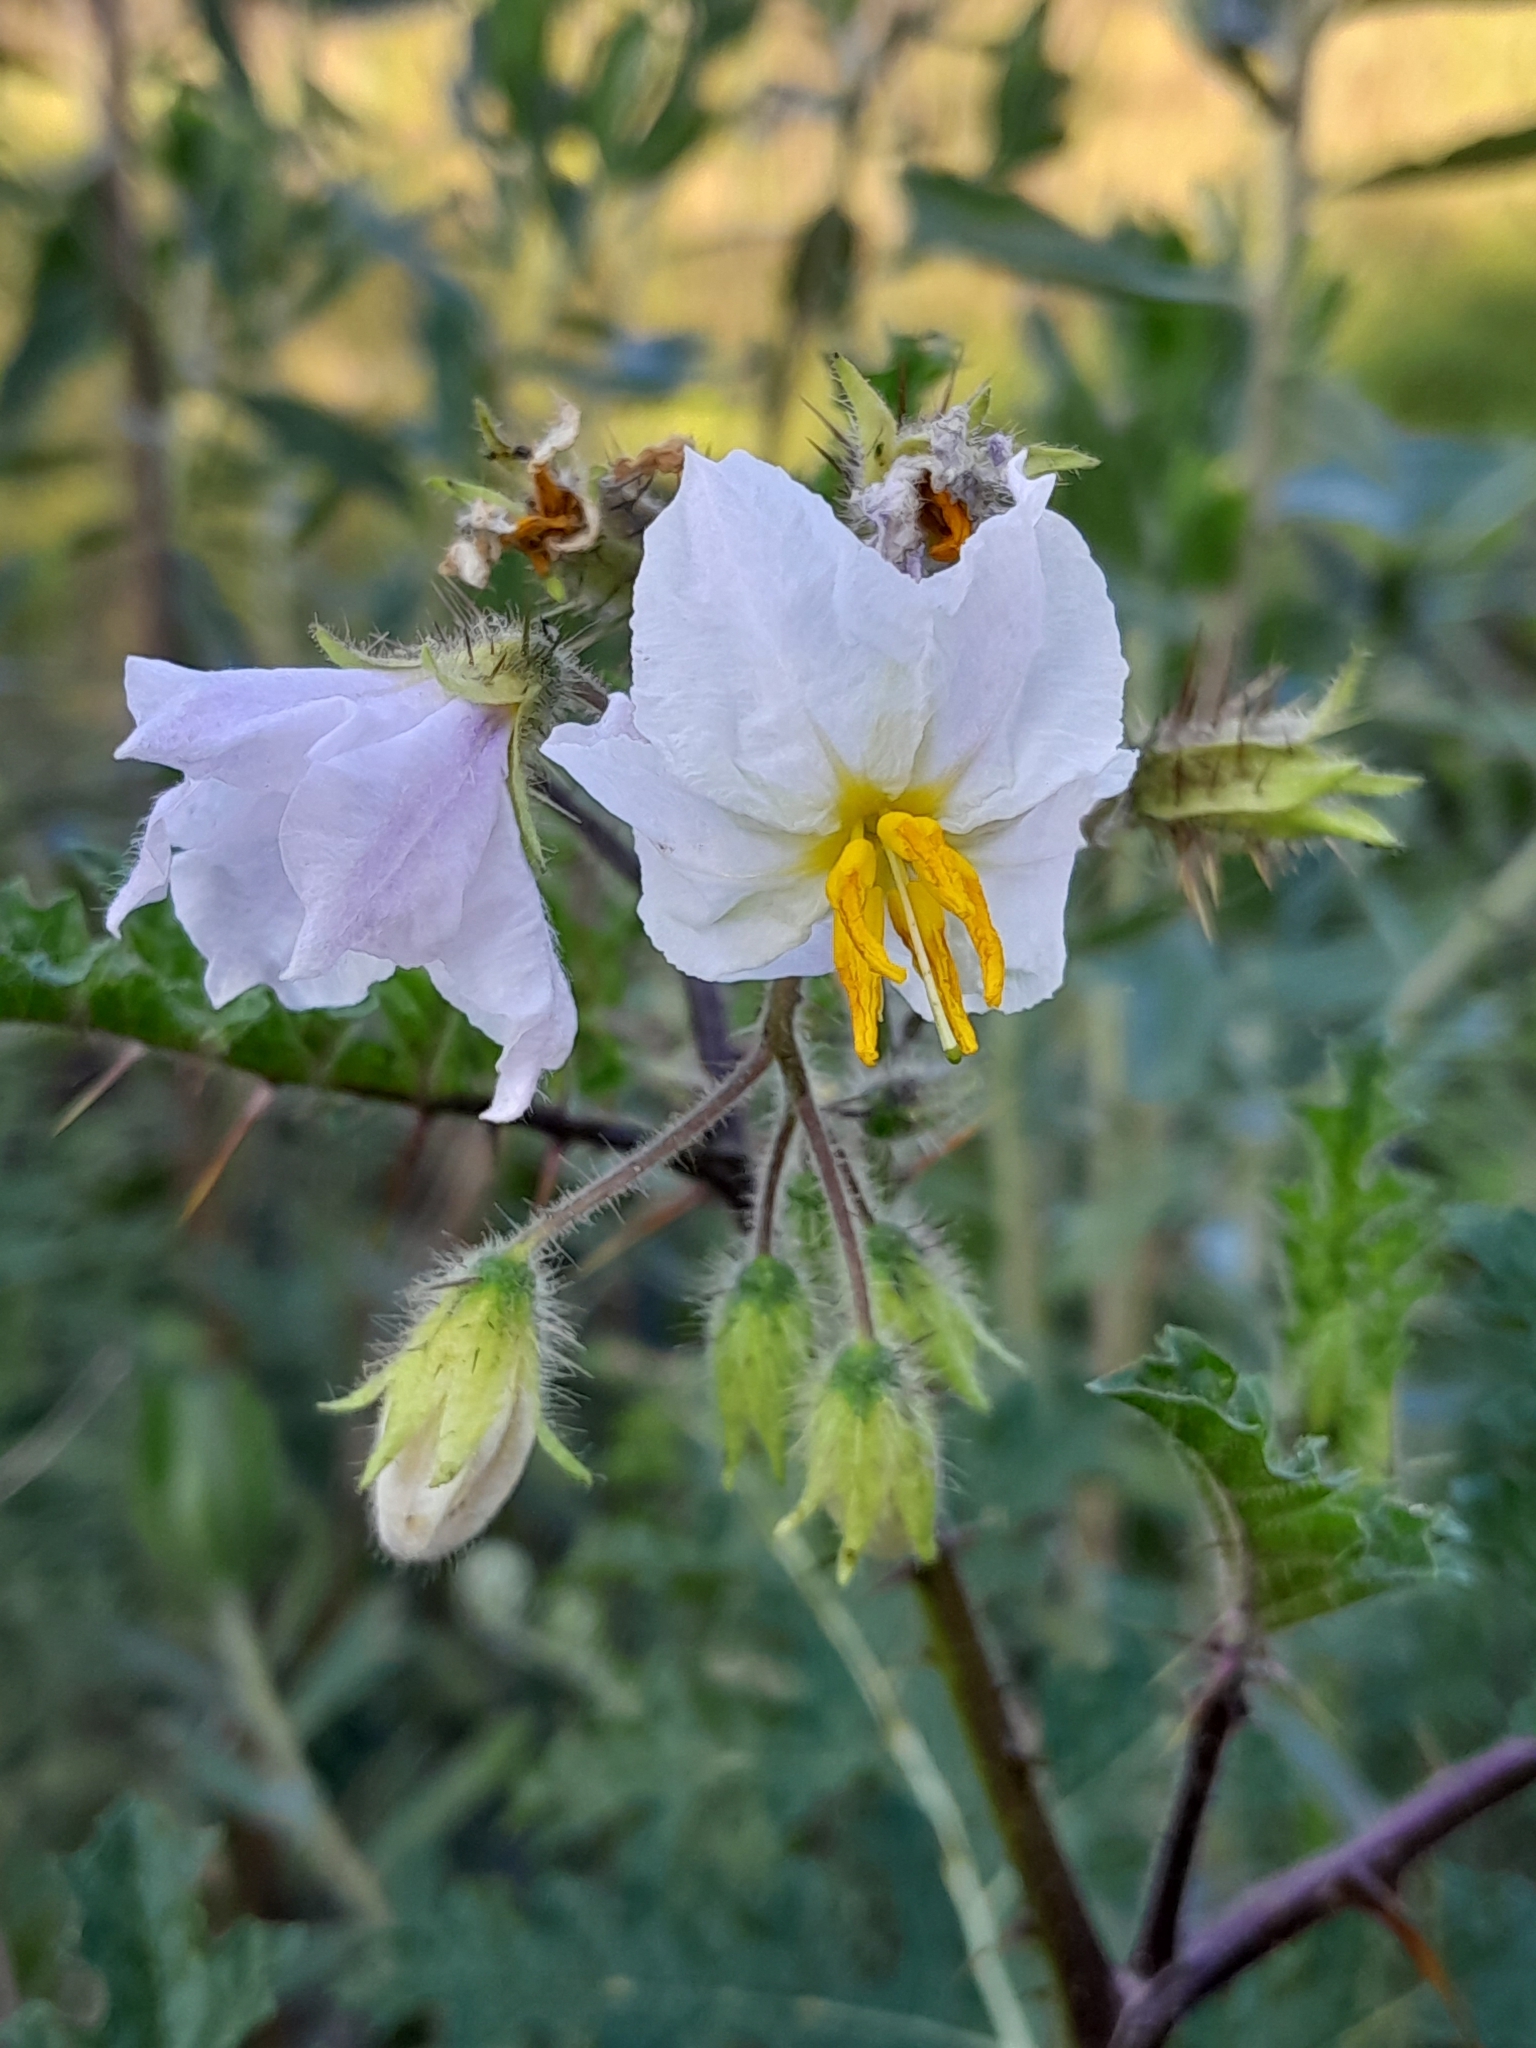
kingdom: Plantae
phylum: Tracheophyta
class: Magnoliopsida
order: Solanales
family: Solanaceae
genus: Solanum
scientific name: Solanum sisymbriifolium
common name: Red buffalo-bur
